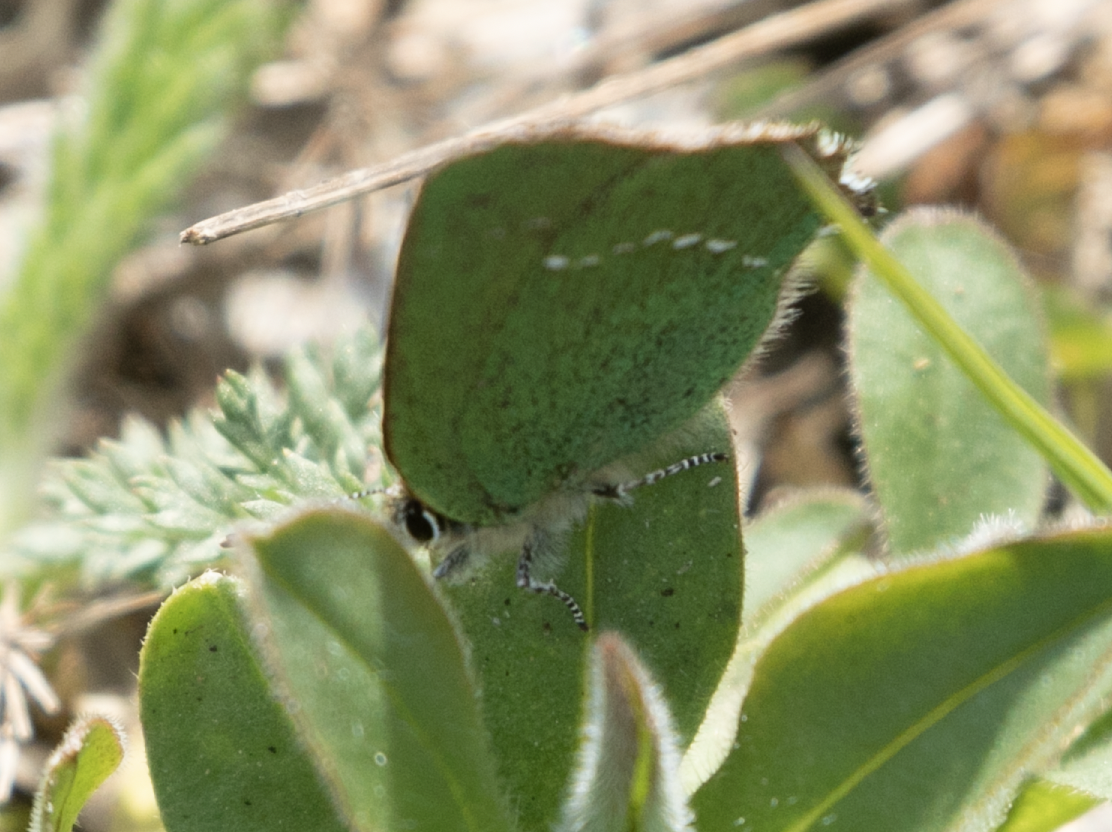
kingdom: Animalia
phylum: Arthropoda
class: Insecta
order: Lepidoptera
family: Lycaenidae
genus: Callophrys
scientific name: Callophrys rubi
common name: Green hairstreak
